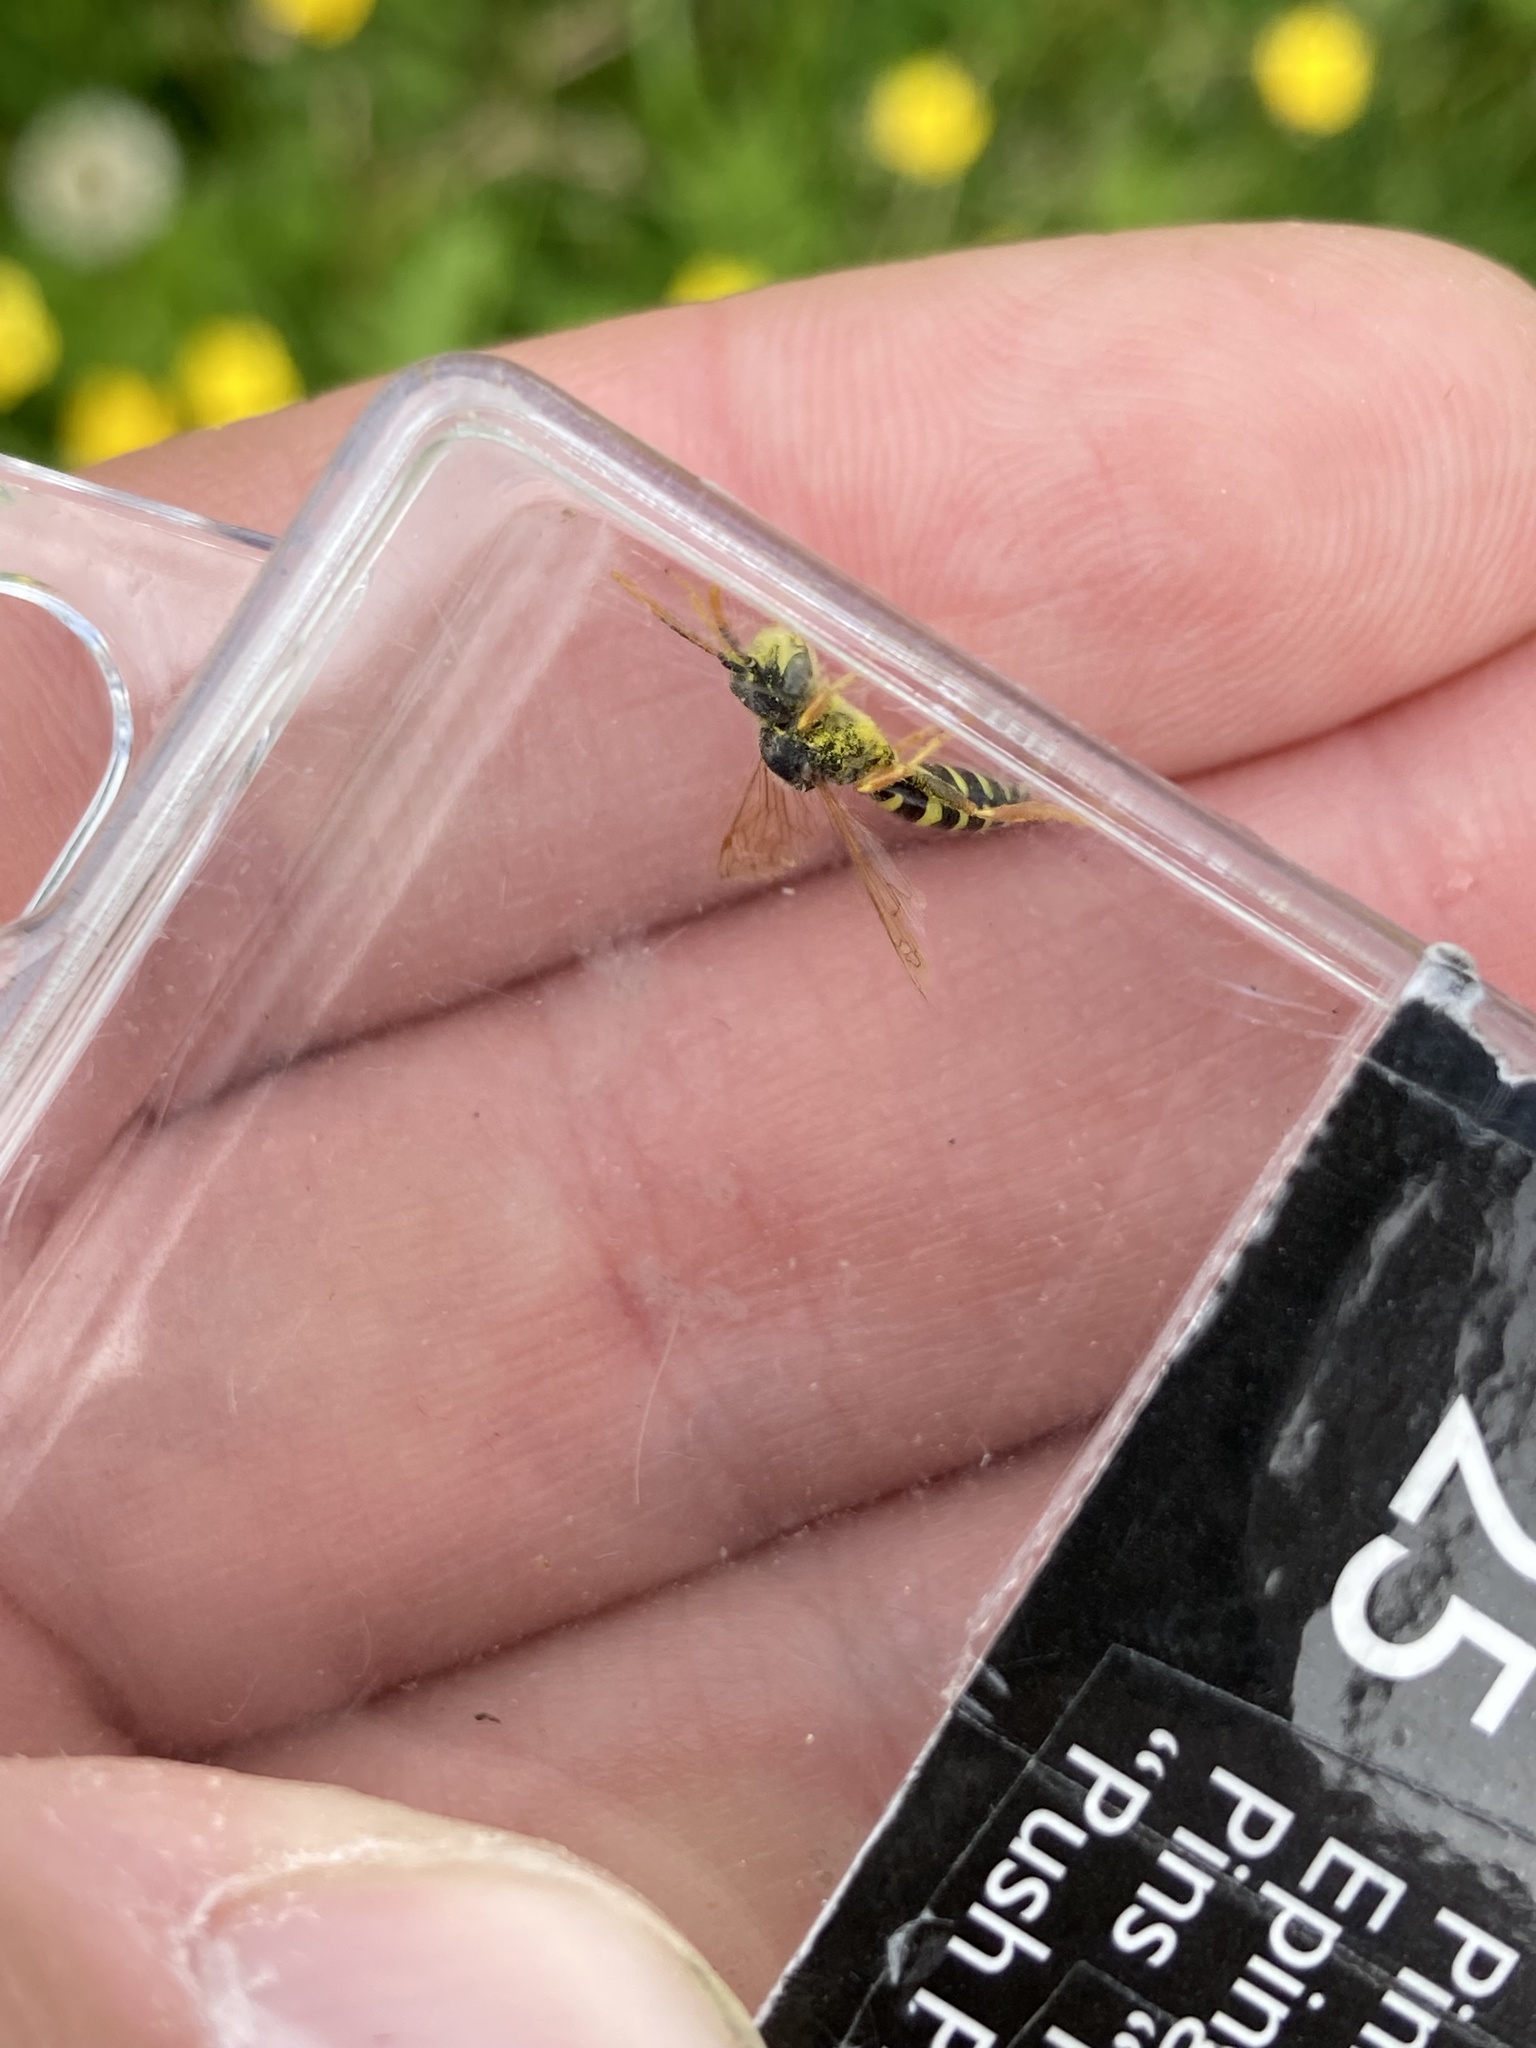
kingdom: Animalia
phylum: Arthropoda
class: Insecta
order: Hymenoptera
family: Apidae
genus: Nomada
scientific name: Nomada goodeniana
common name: Gooden's nomad bee
